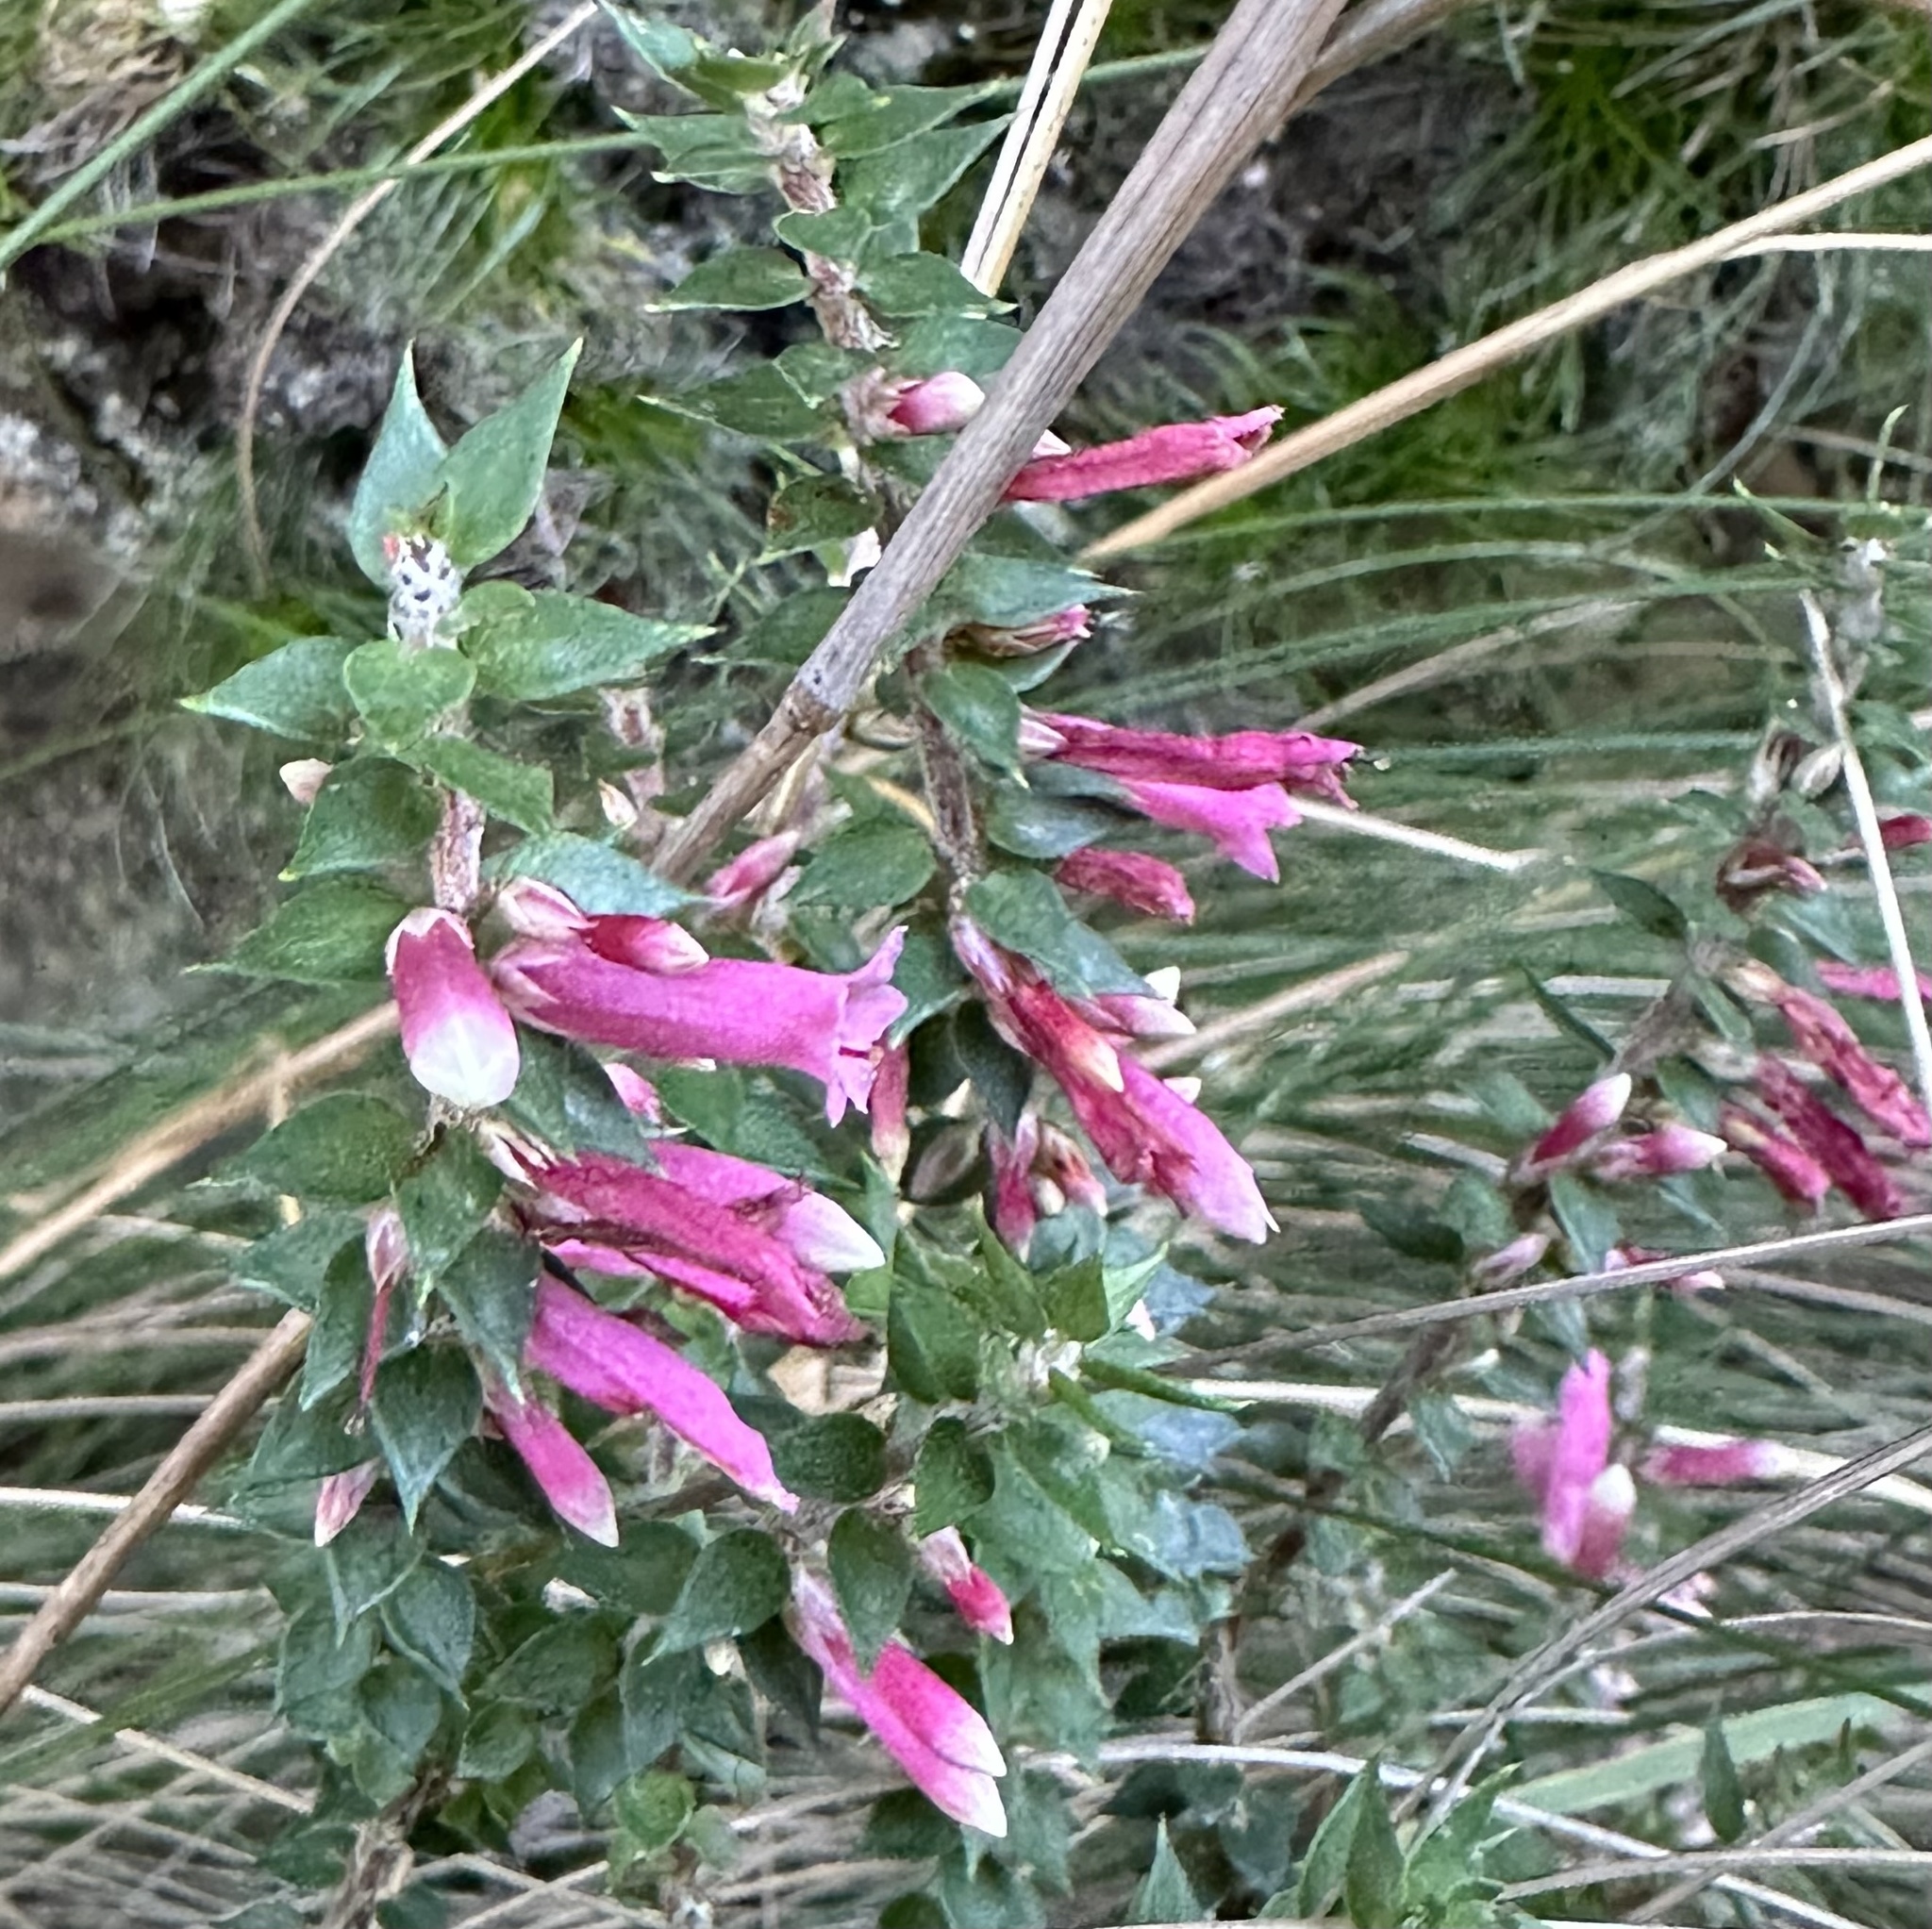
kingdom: Plantae
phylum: Tracheophyta
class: Magnoliopsida
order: Ericales
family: Ericaceae
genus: Epacris
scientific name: Epacris reclinata
